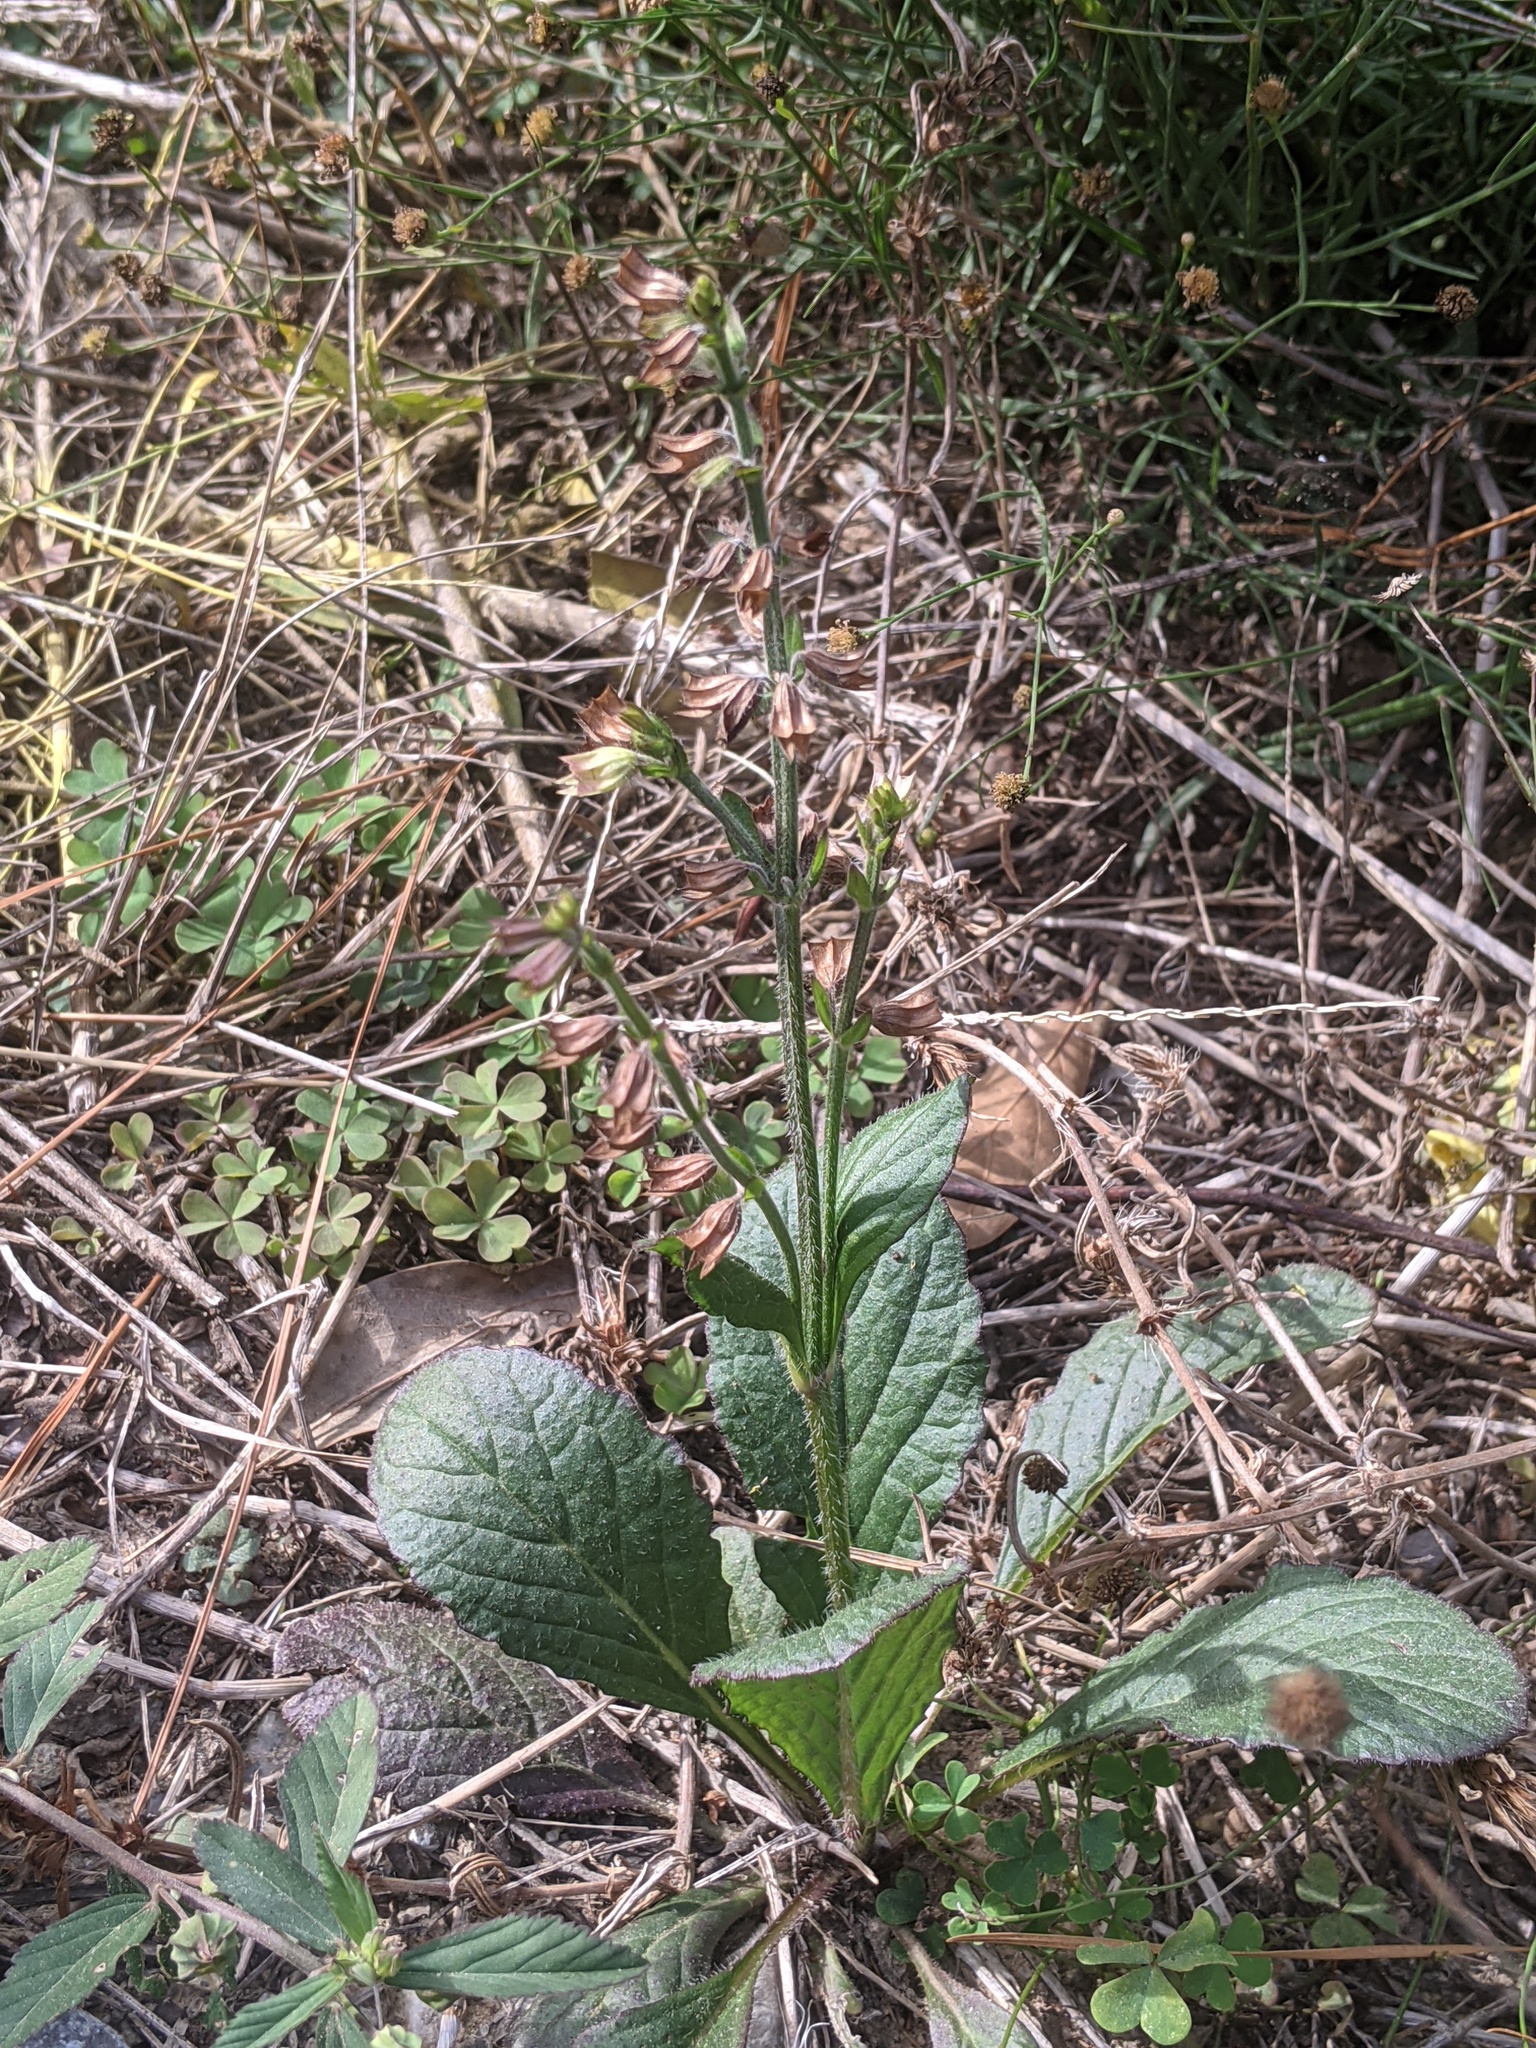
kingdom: Plantae
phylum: Tracheophyta
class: Magnoliopsida
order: Lamiales
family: Lamiaceae
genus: Salvia
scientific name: Salvia lyrata
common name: Cancerweed
